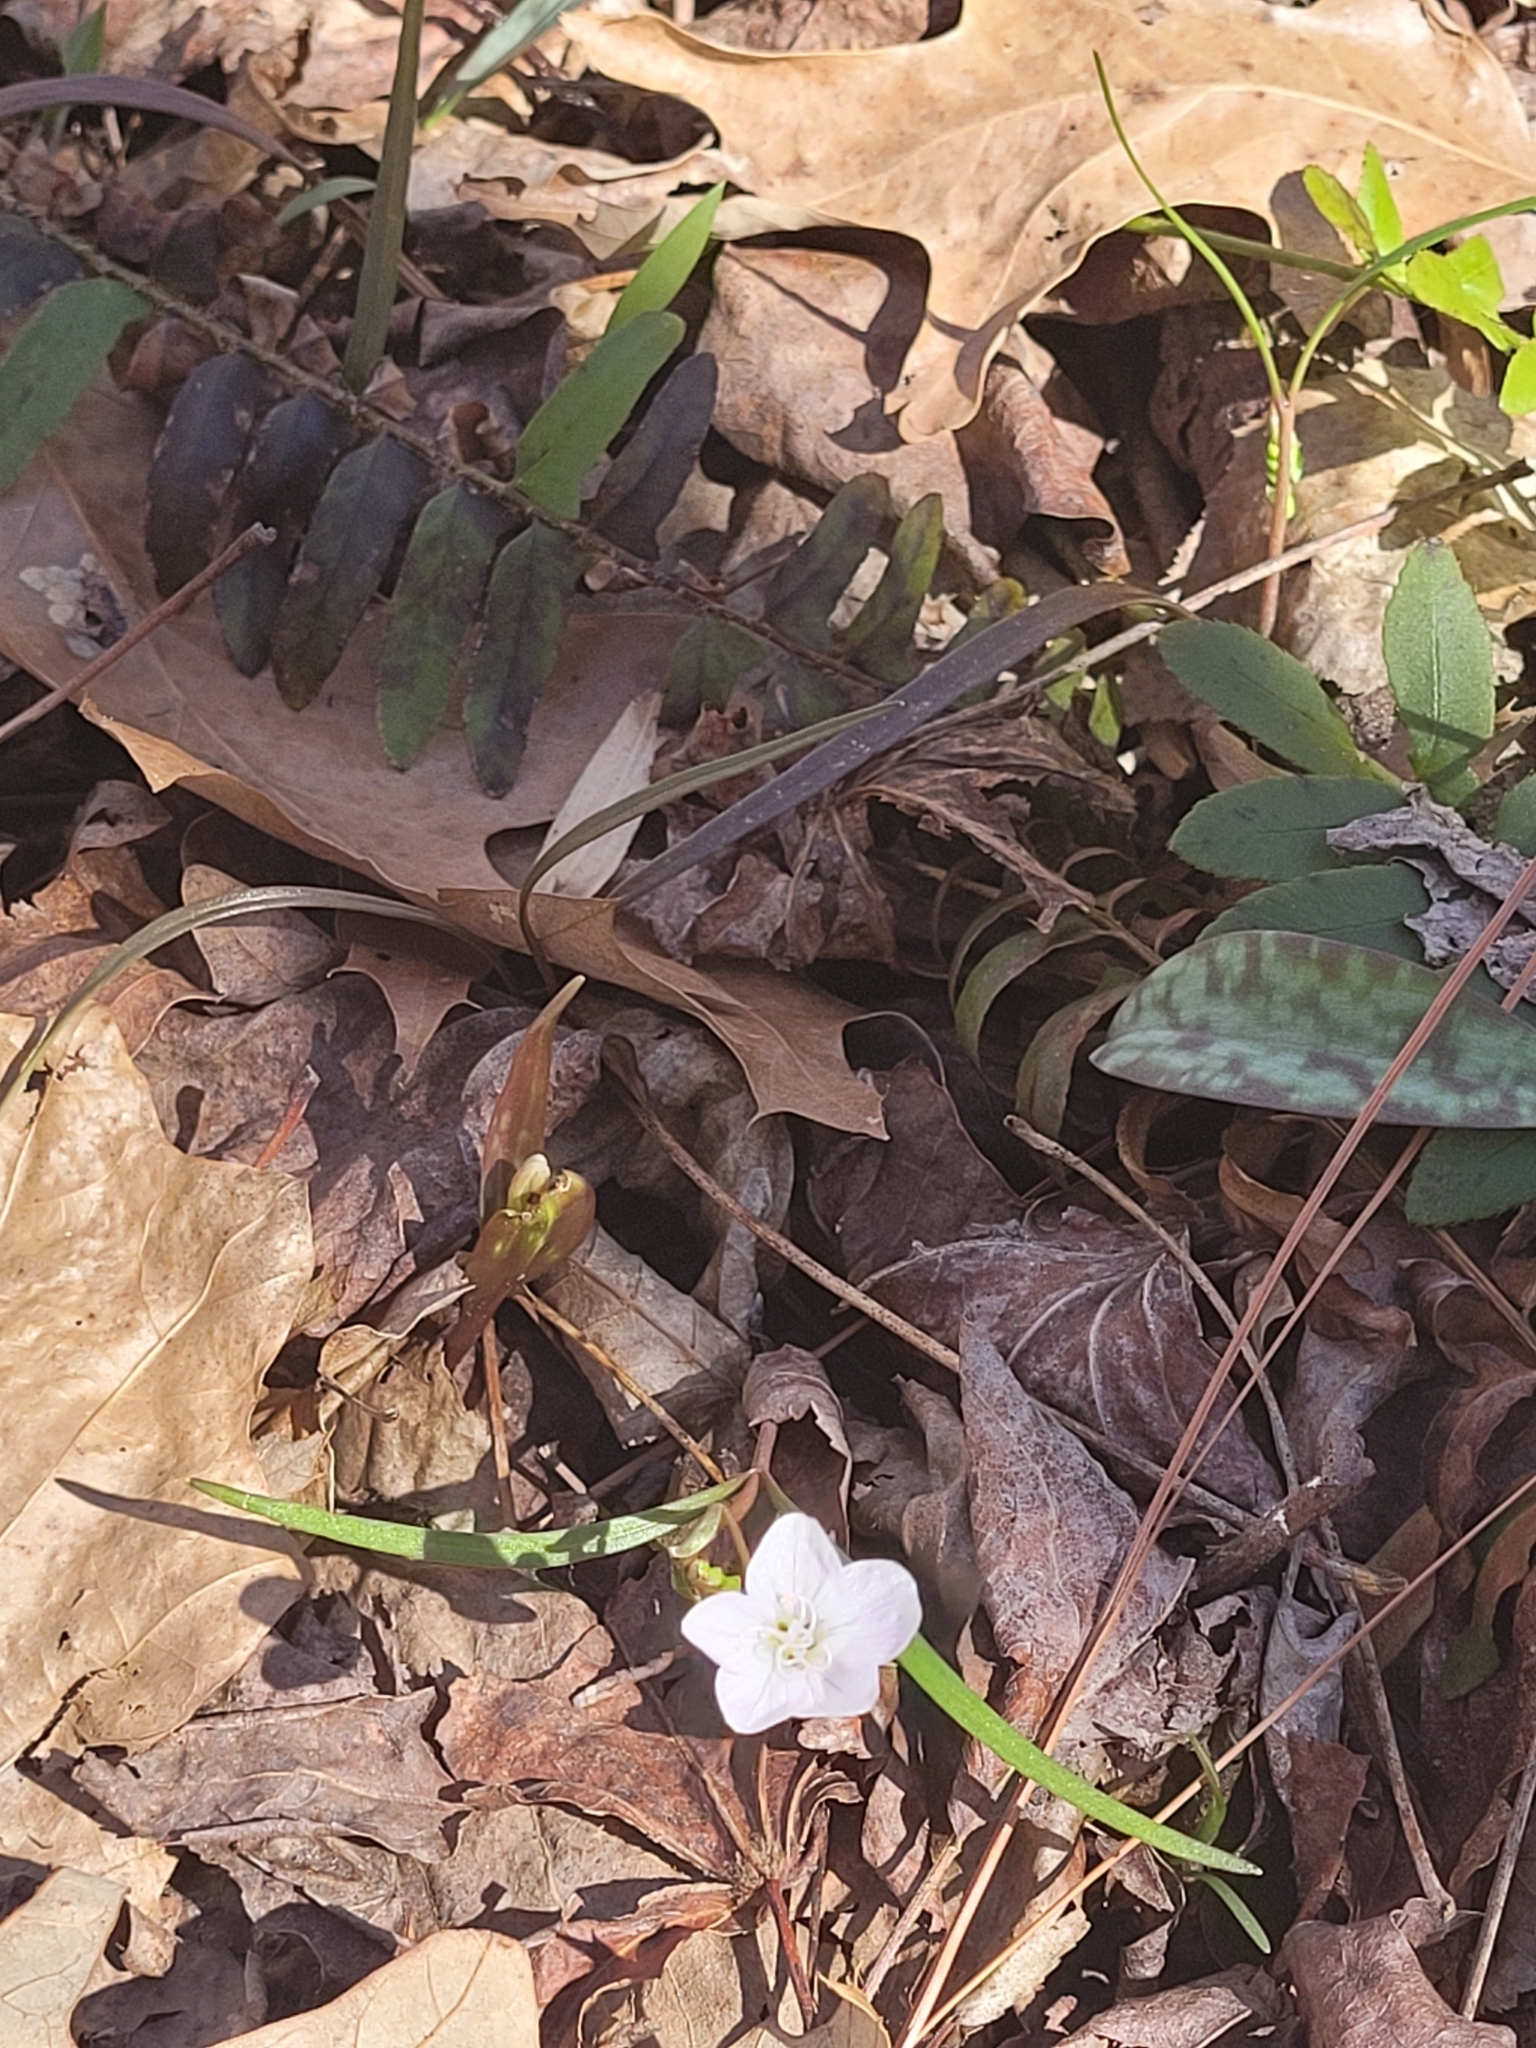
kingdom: Plantae
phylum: Tracheophyta
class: Magnoliopsida
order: Caryophyllales
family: Montiaceae
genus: Claytonia
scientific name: Claytonia virginica
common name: Virginia springbeauty
